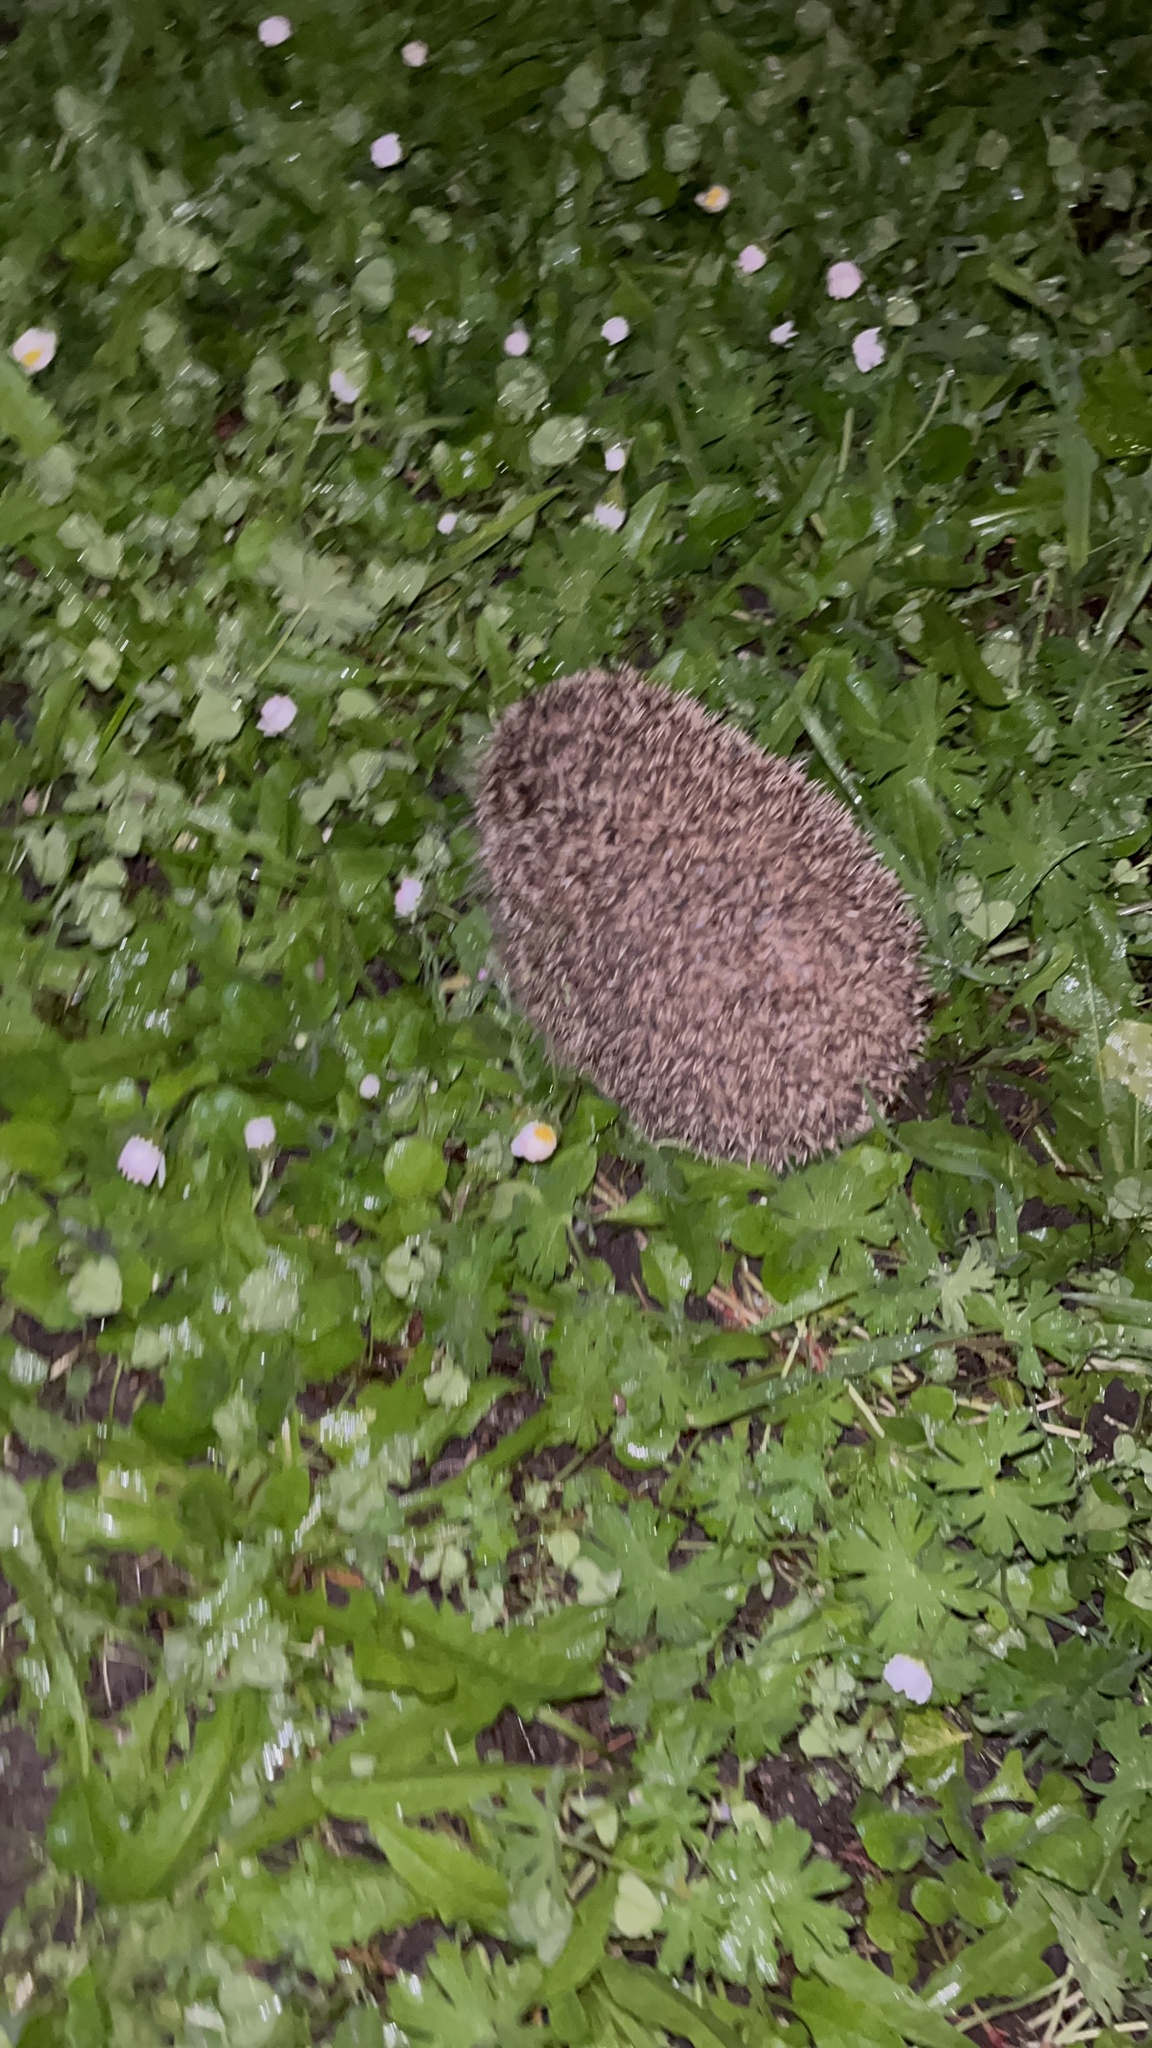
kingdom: Animalia
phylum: Chordata
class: Mammalia
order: Erinaceomorpha
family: Erinaceidae
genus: Erinaceus
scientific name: Erinaceus europaeus
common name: West european hedgehog
